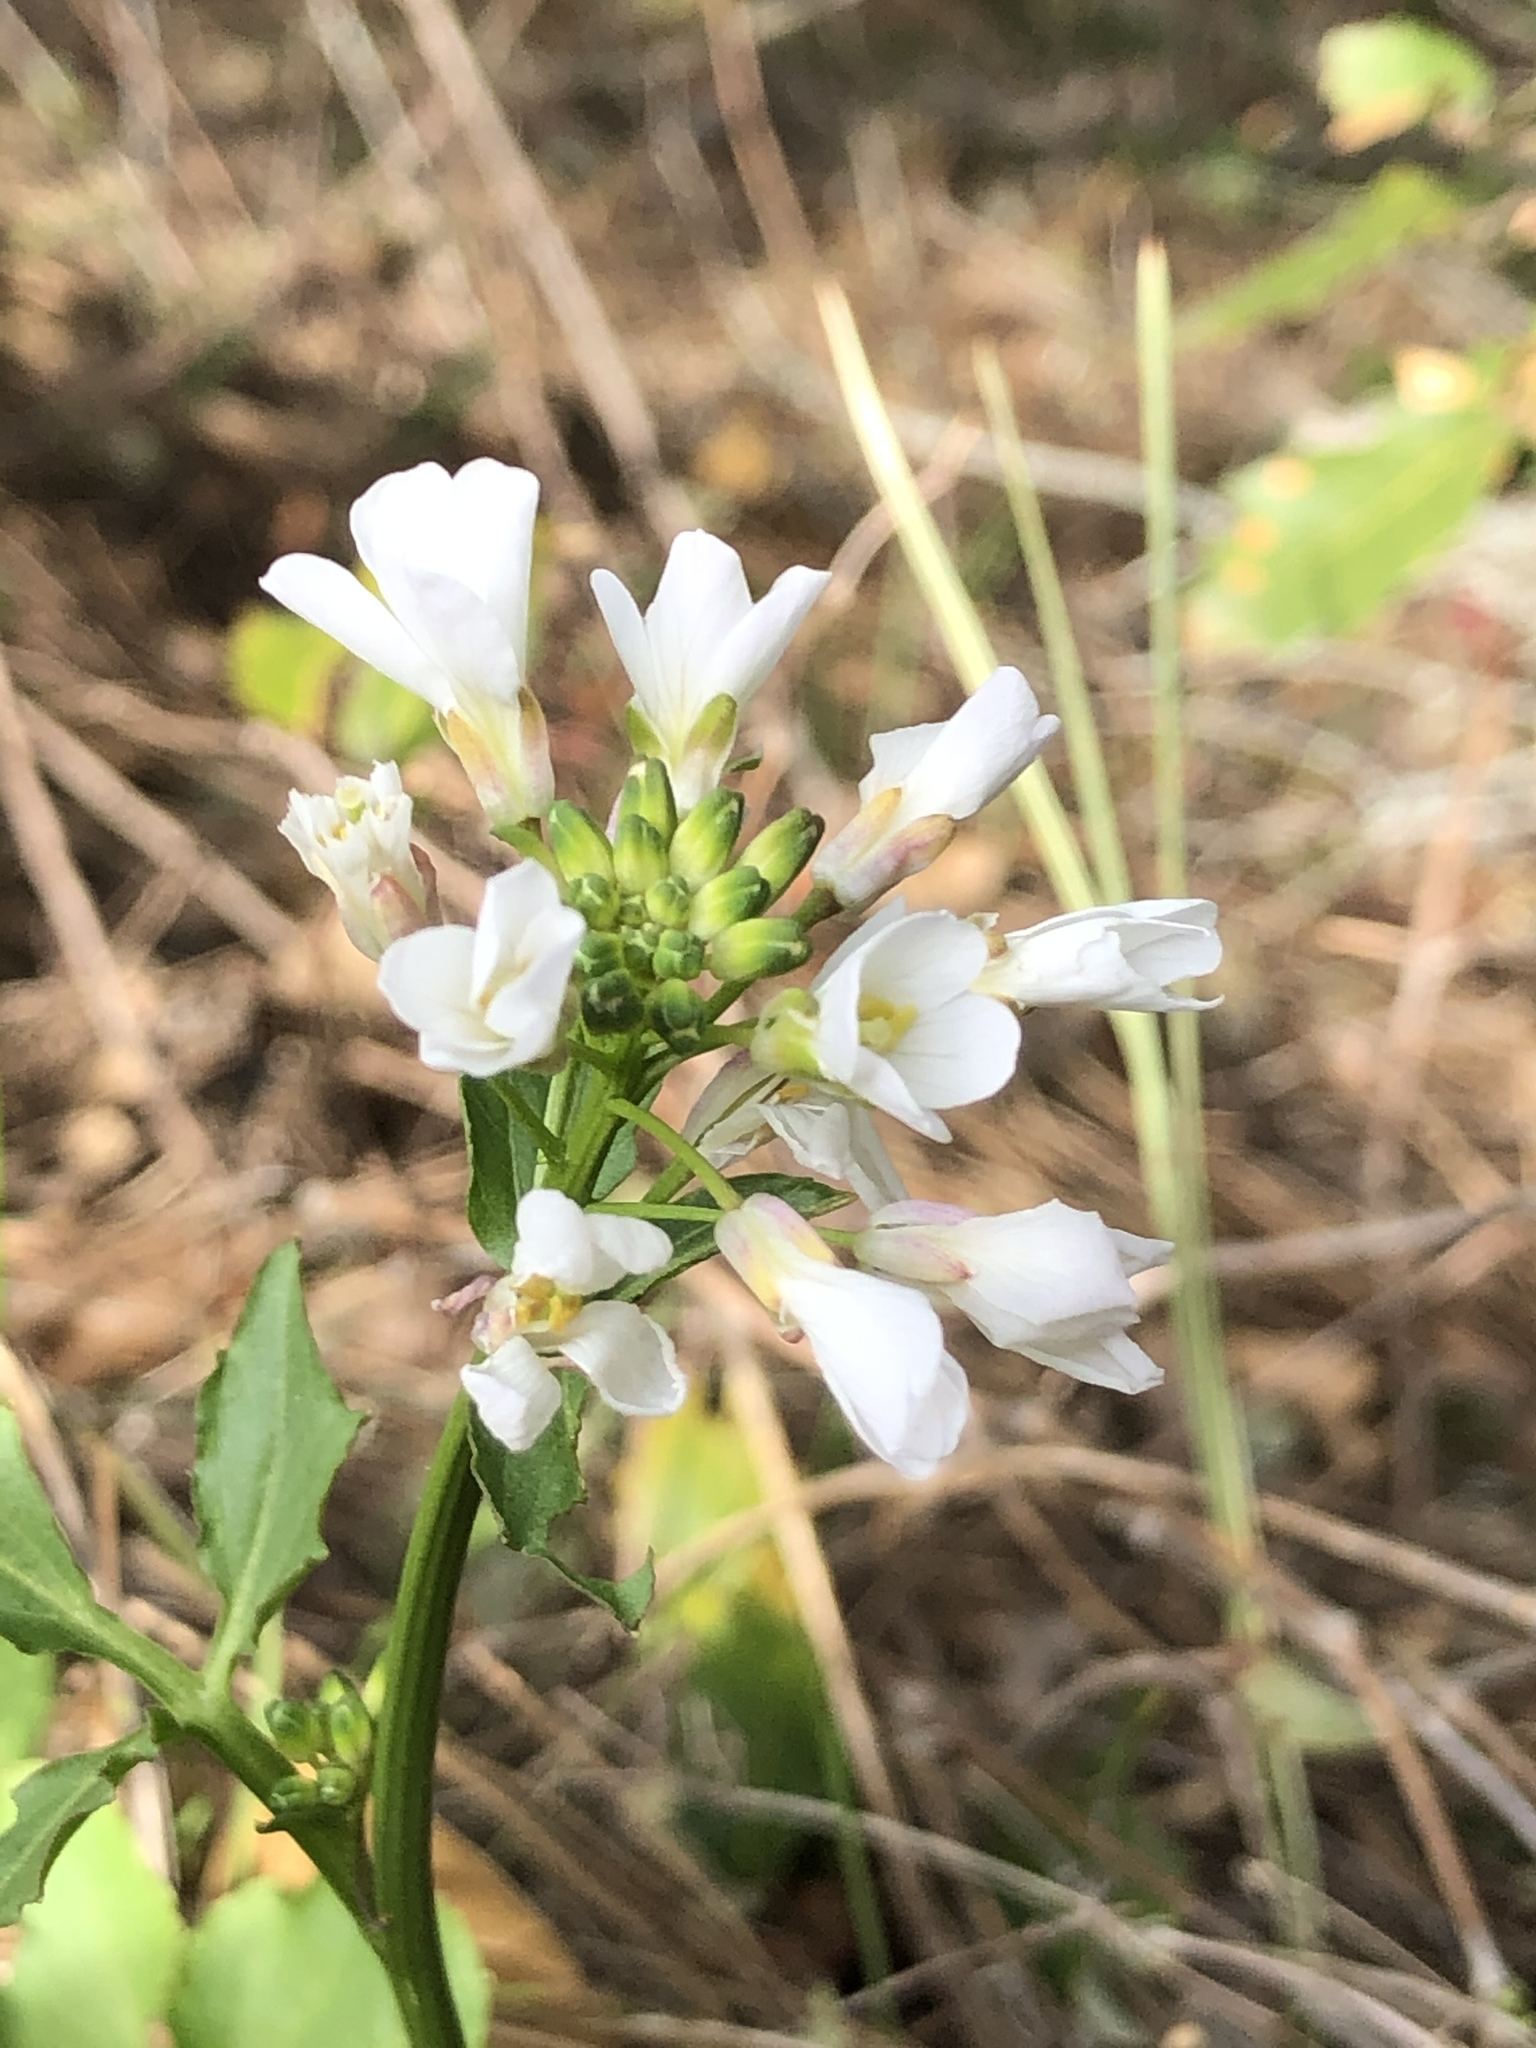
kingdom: Plantae
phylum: Tracheophyta
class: Magnoliopsida
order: Brassicales
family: Brassicaceae
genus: Cardamine
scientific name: Cardamine californica
